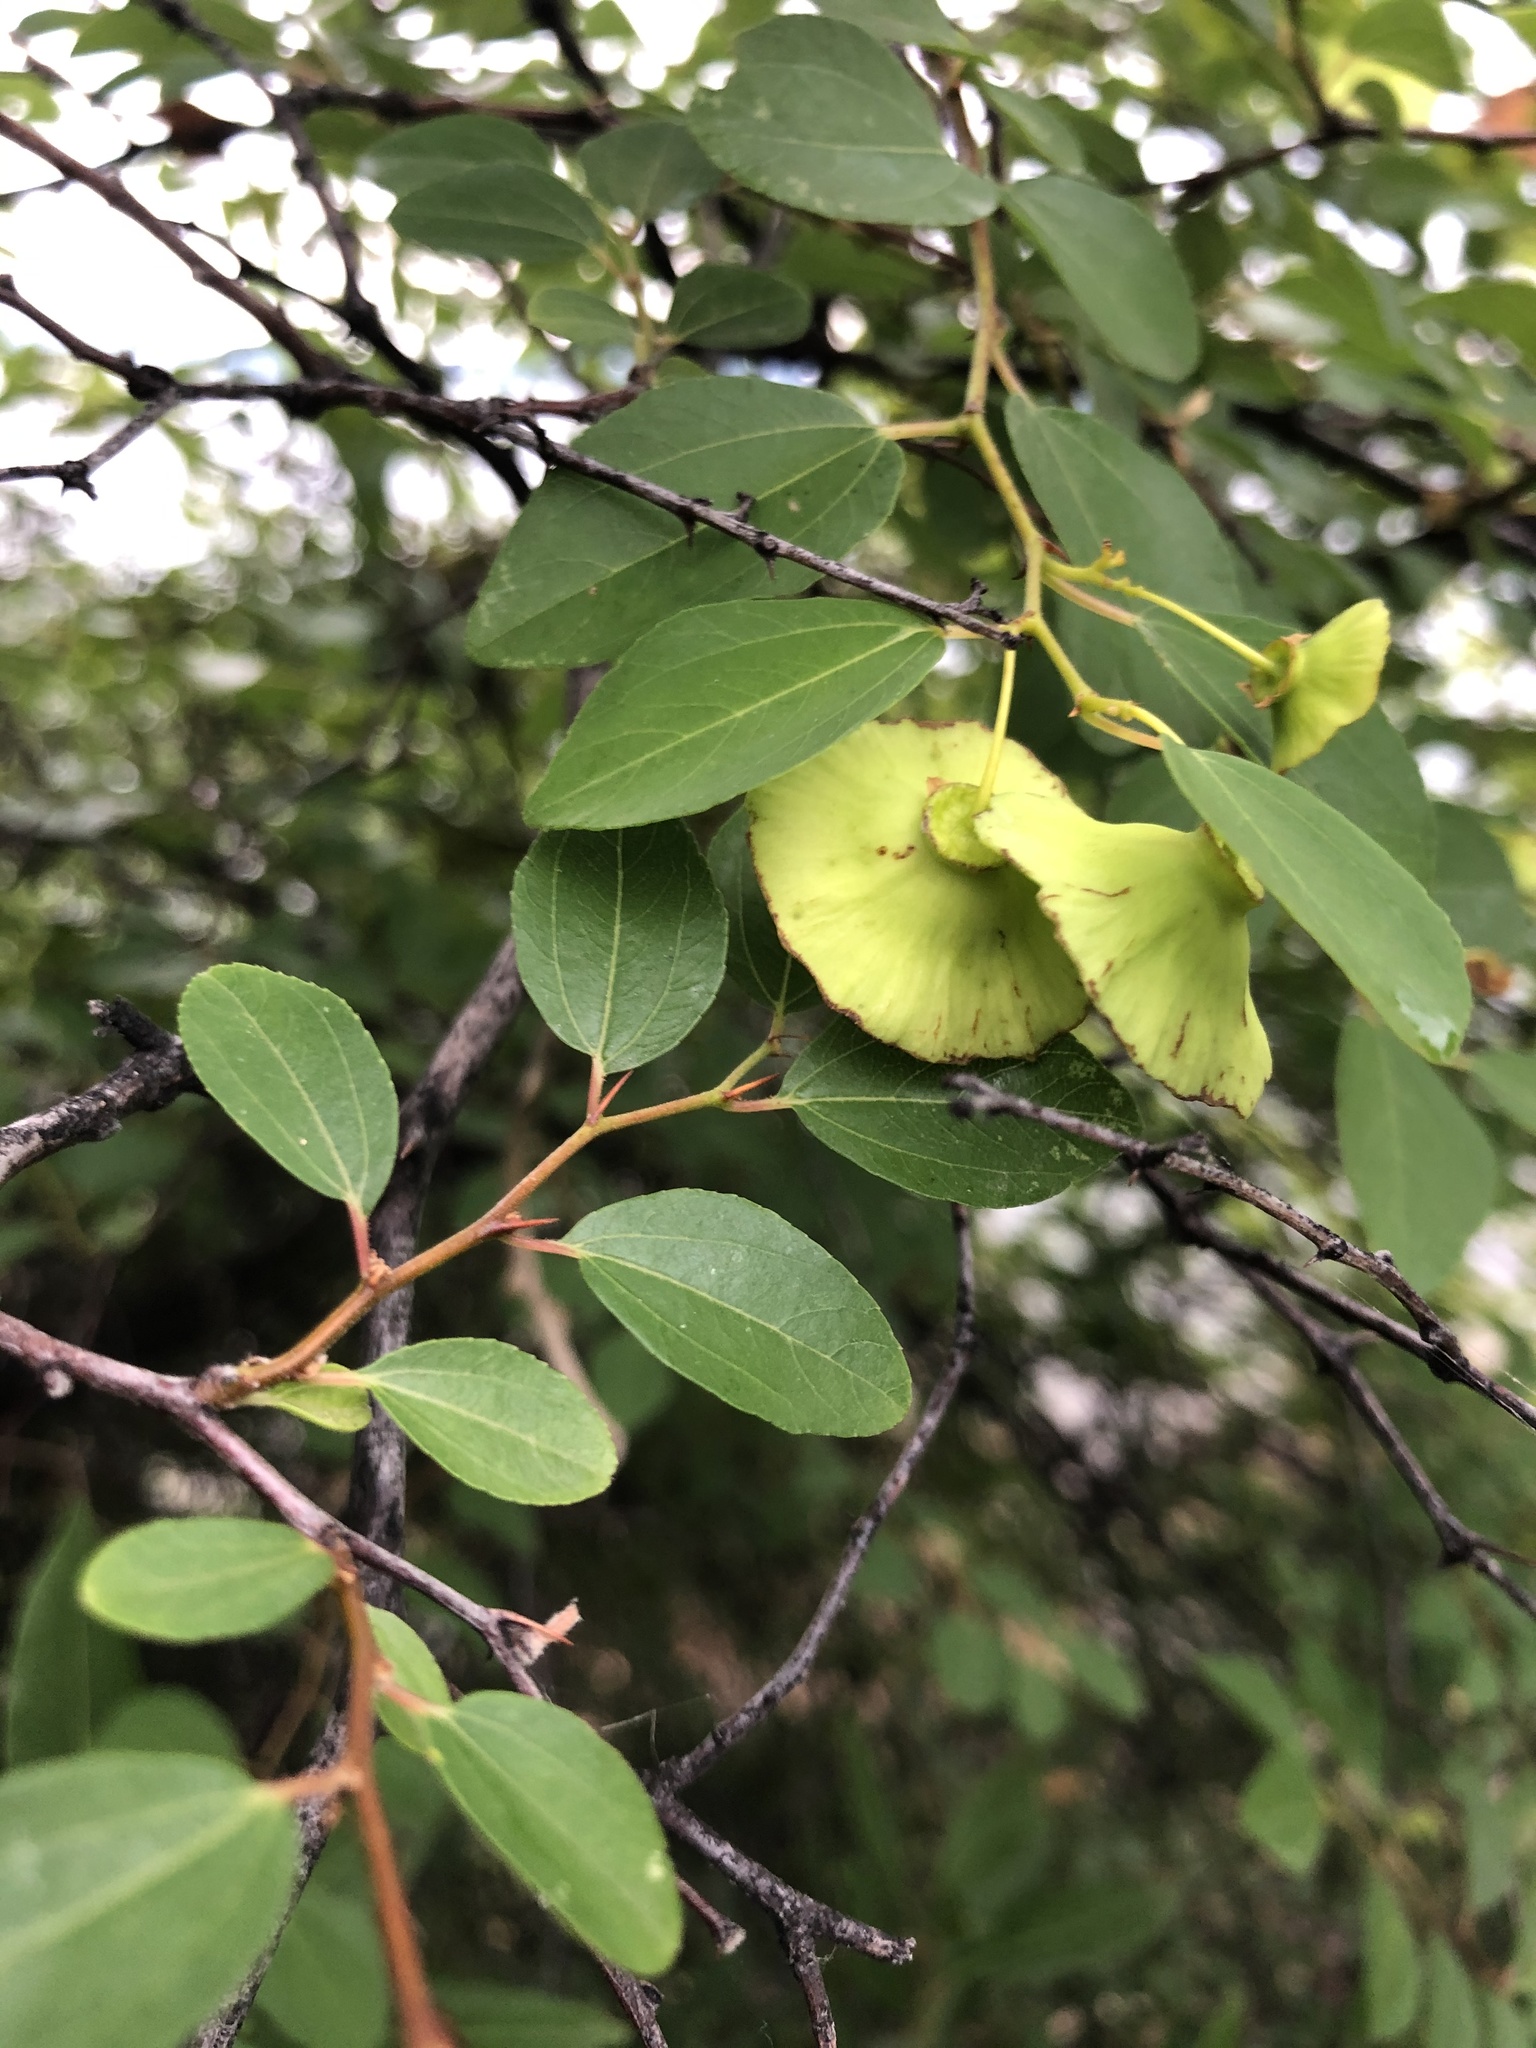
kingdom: Plantae
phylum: Tracheophyta
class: Magnoliopsida
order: Rosales
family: Rhamnaceae
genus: Paliurus
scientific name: Paliurus spina-christi
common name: Jeruselem thorn
